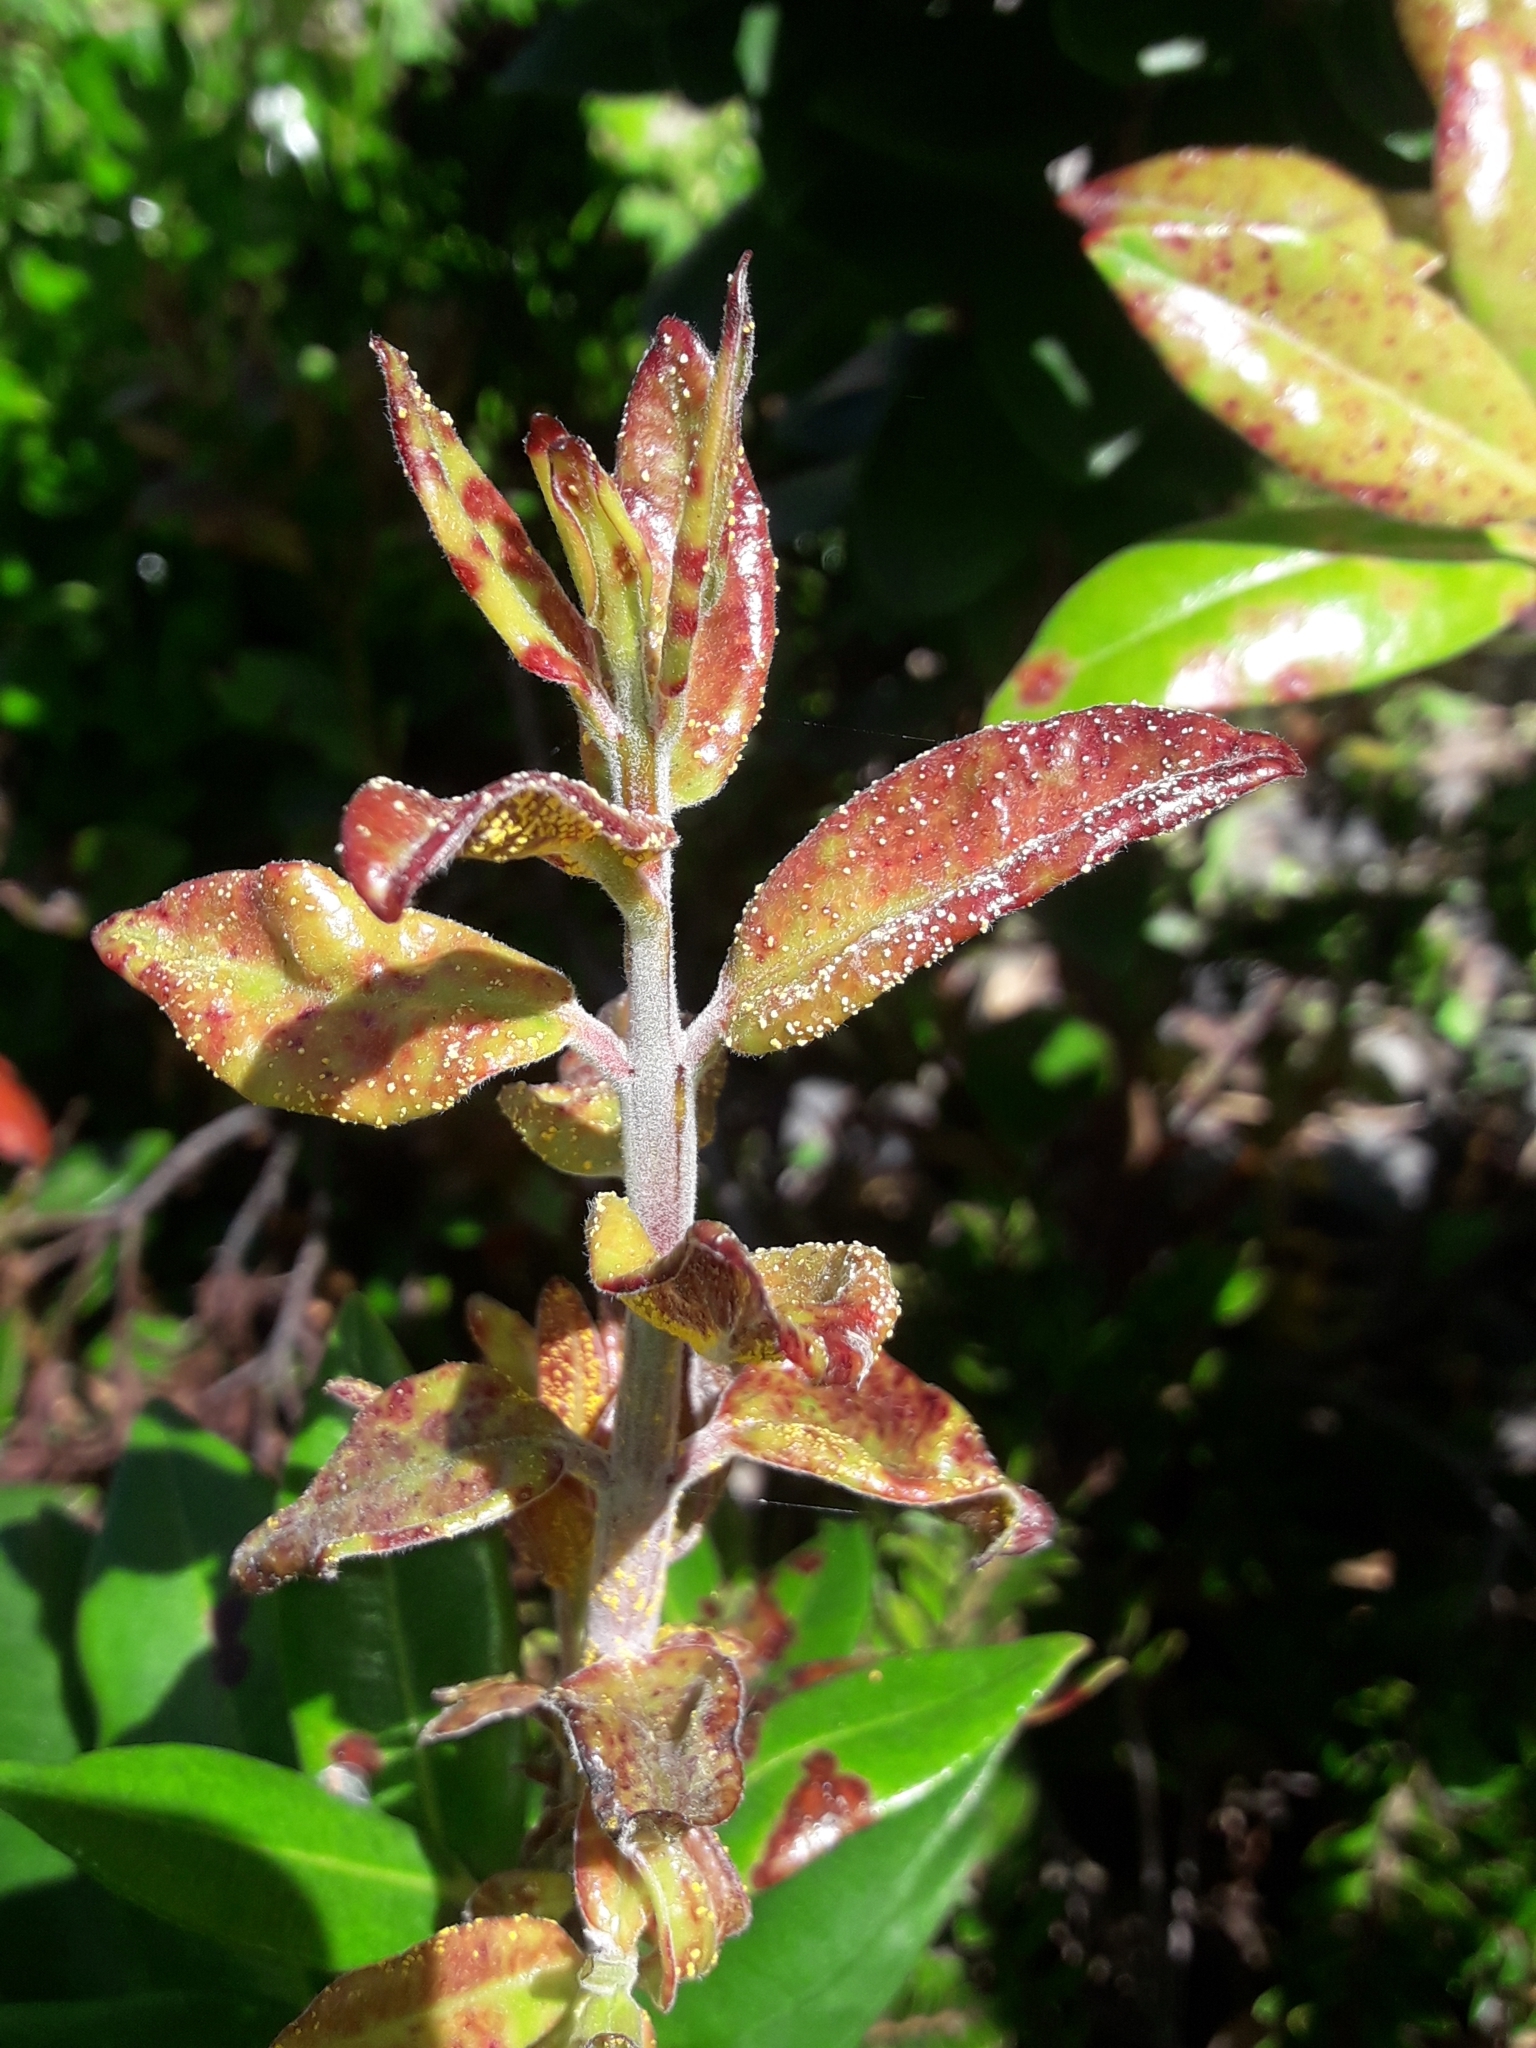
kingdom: Fungi
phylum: Basidiomycota
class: Pucciniomycetes
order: Pucciniales
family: Sphaerophragmiaceae
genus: Austropuccinia
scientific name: Austropuccinia psidii
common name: Myrtle rust
